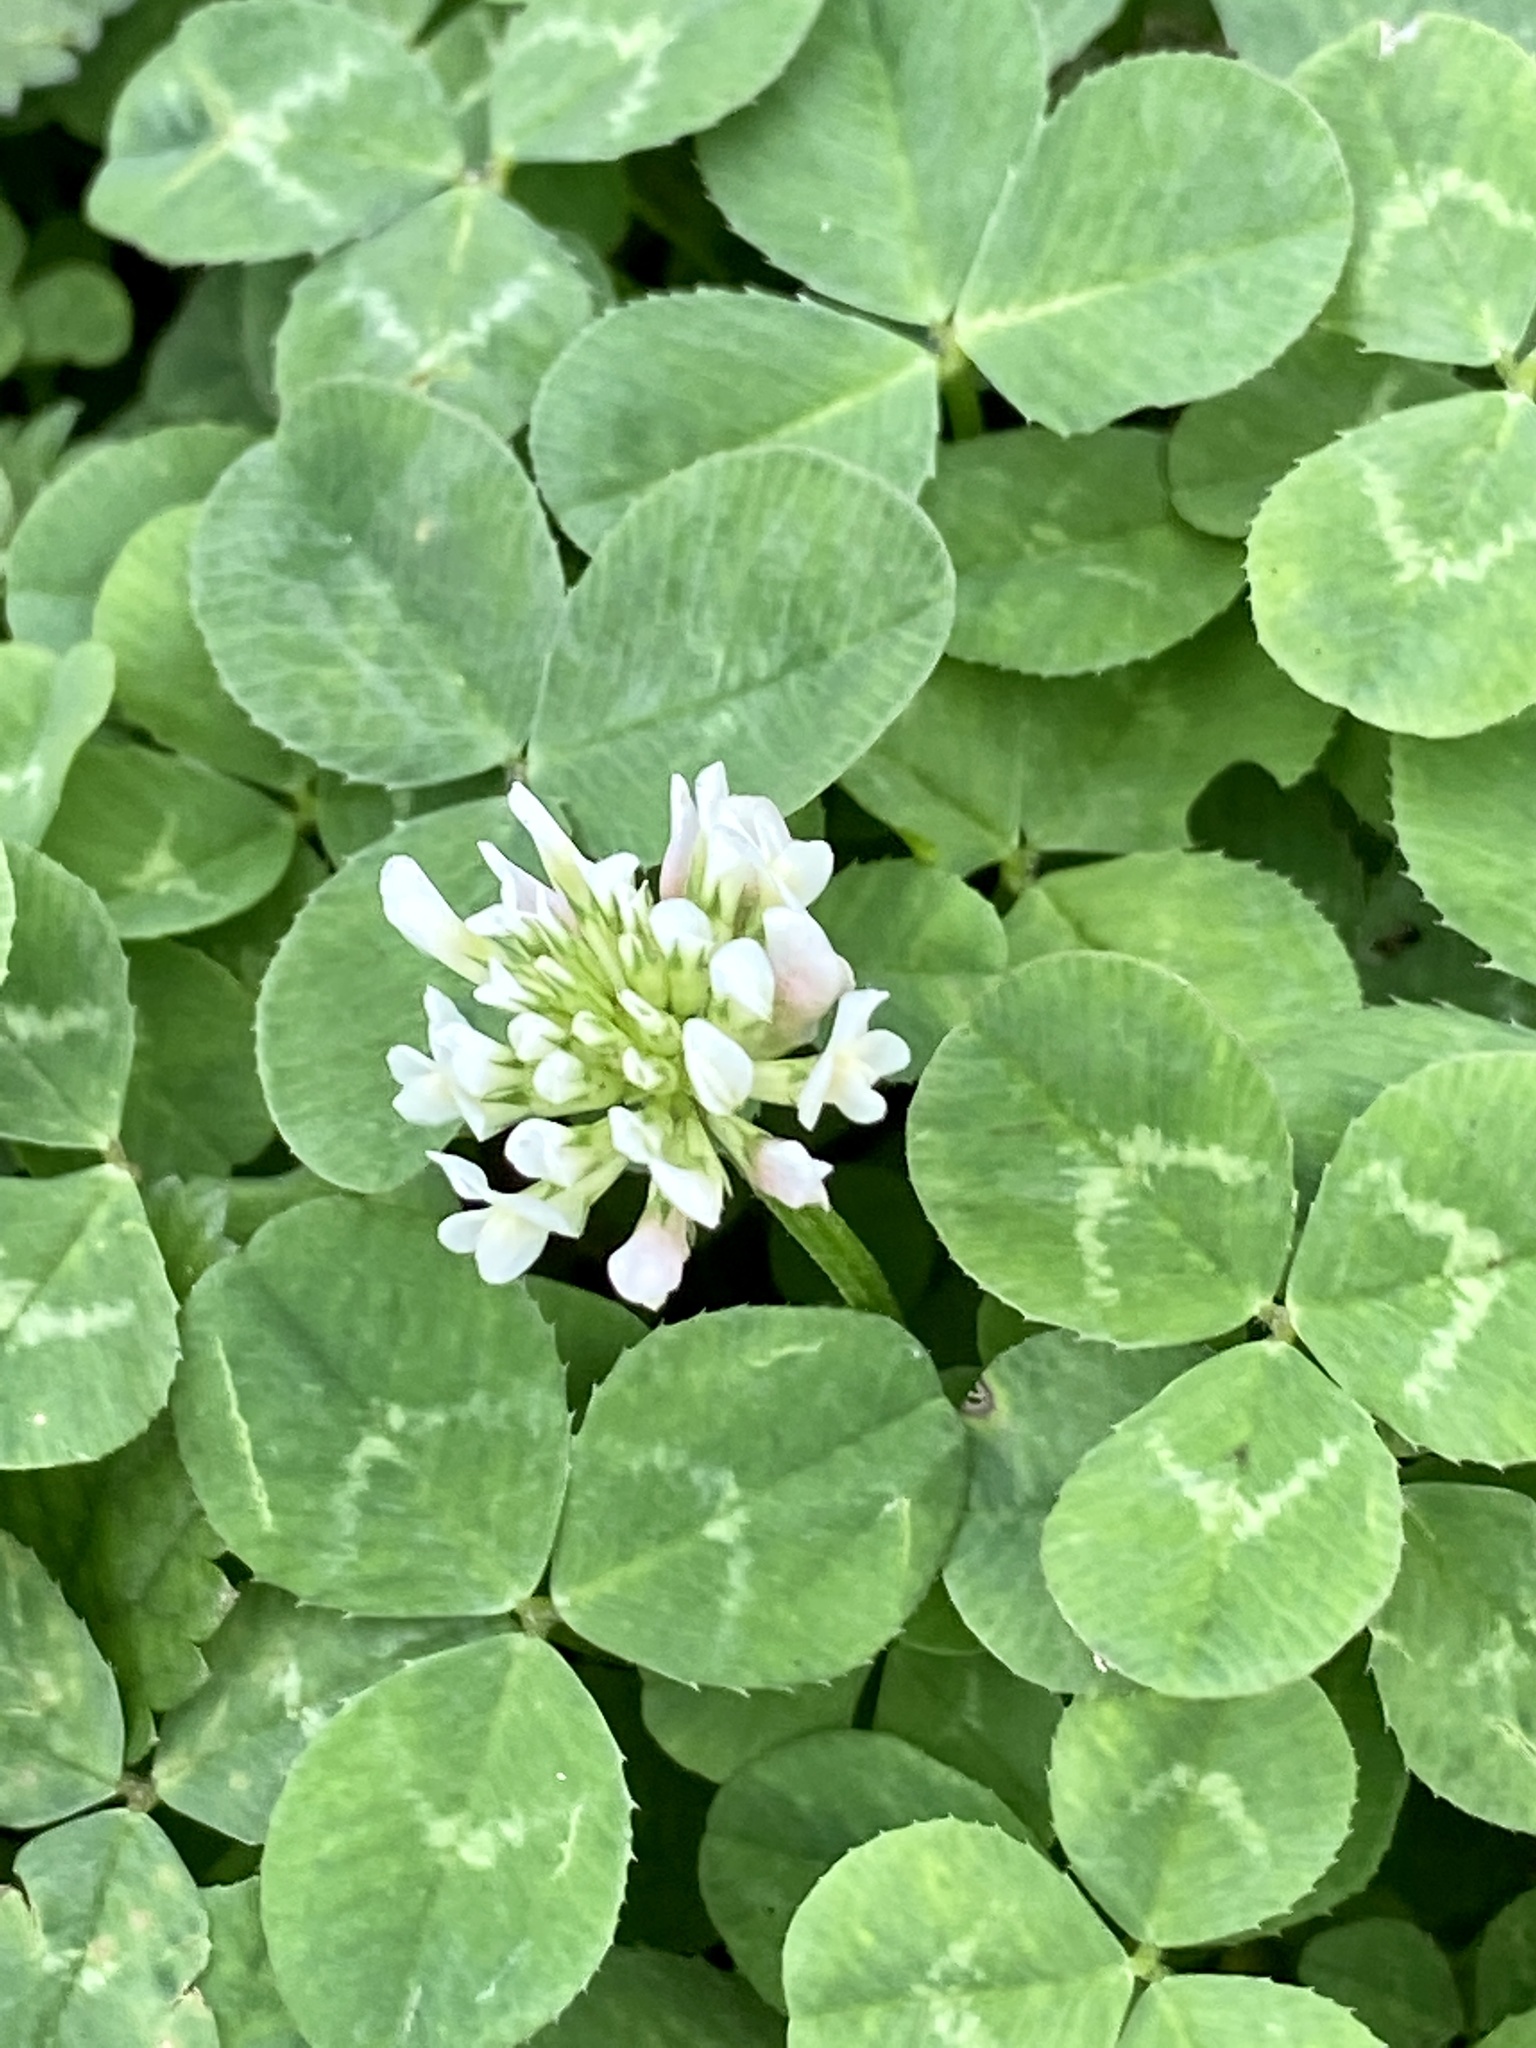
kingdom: Plantae
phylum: Tracheophyta
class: Magnoliopsida
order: Fabales
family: Fabaceae
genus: Trifolium
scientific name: Trifolium repens
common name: White clover
